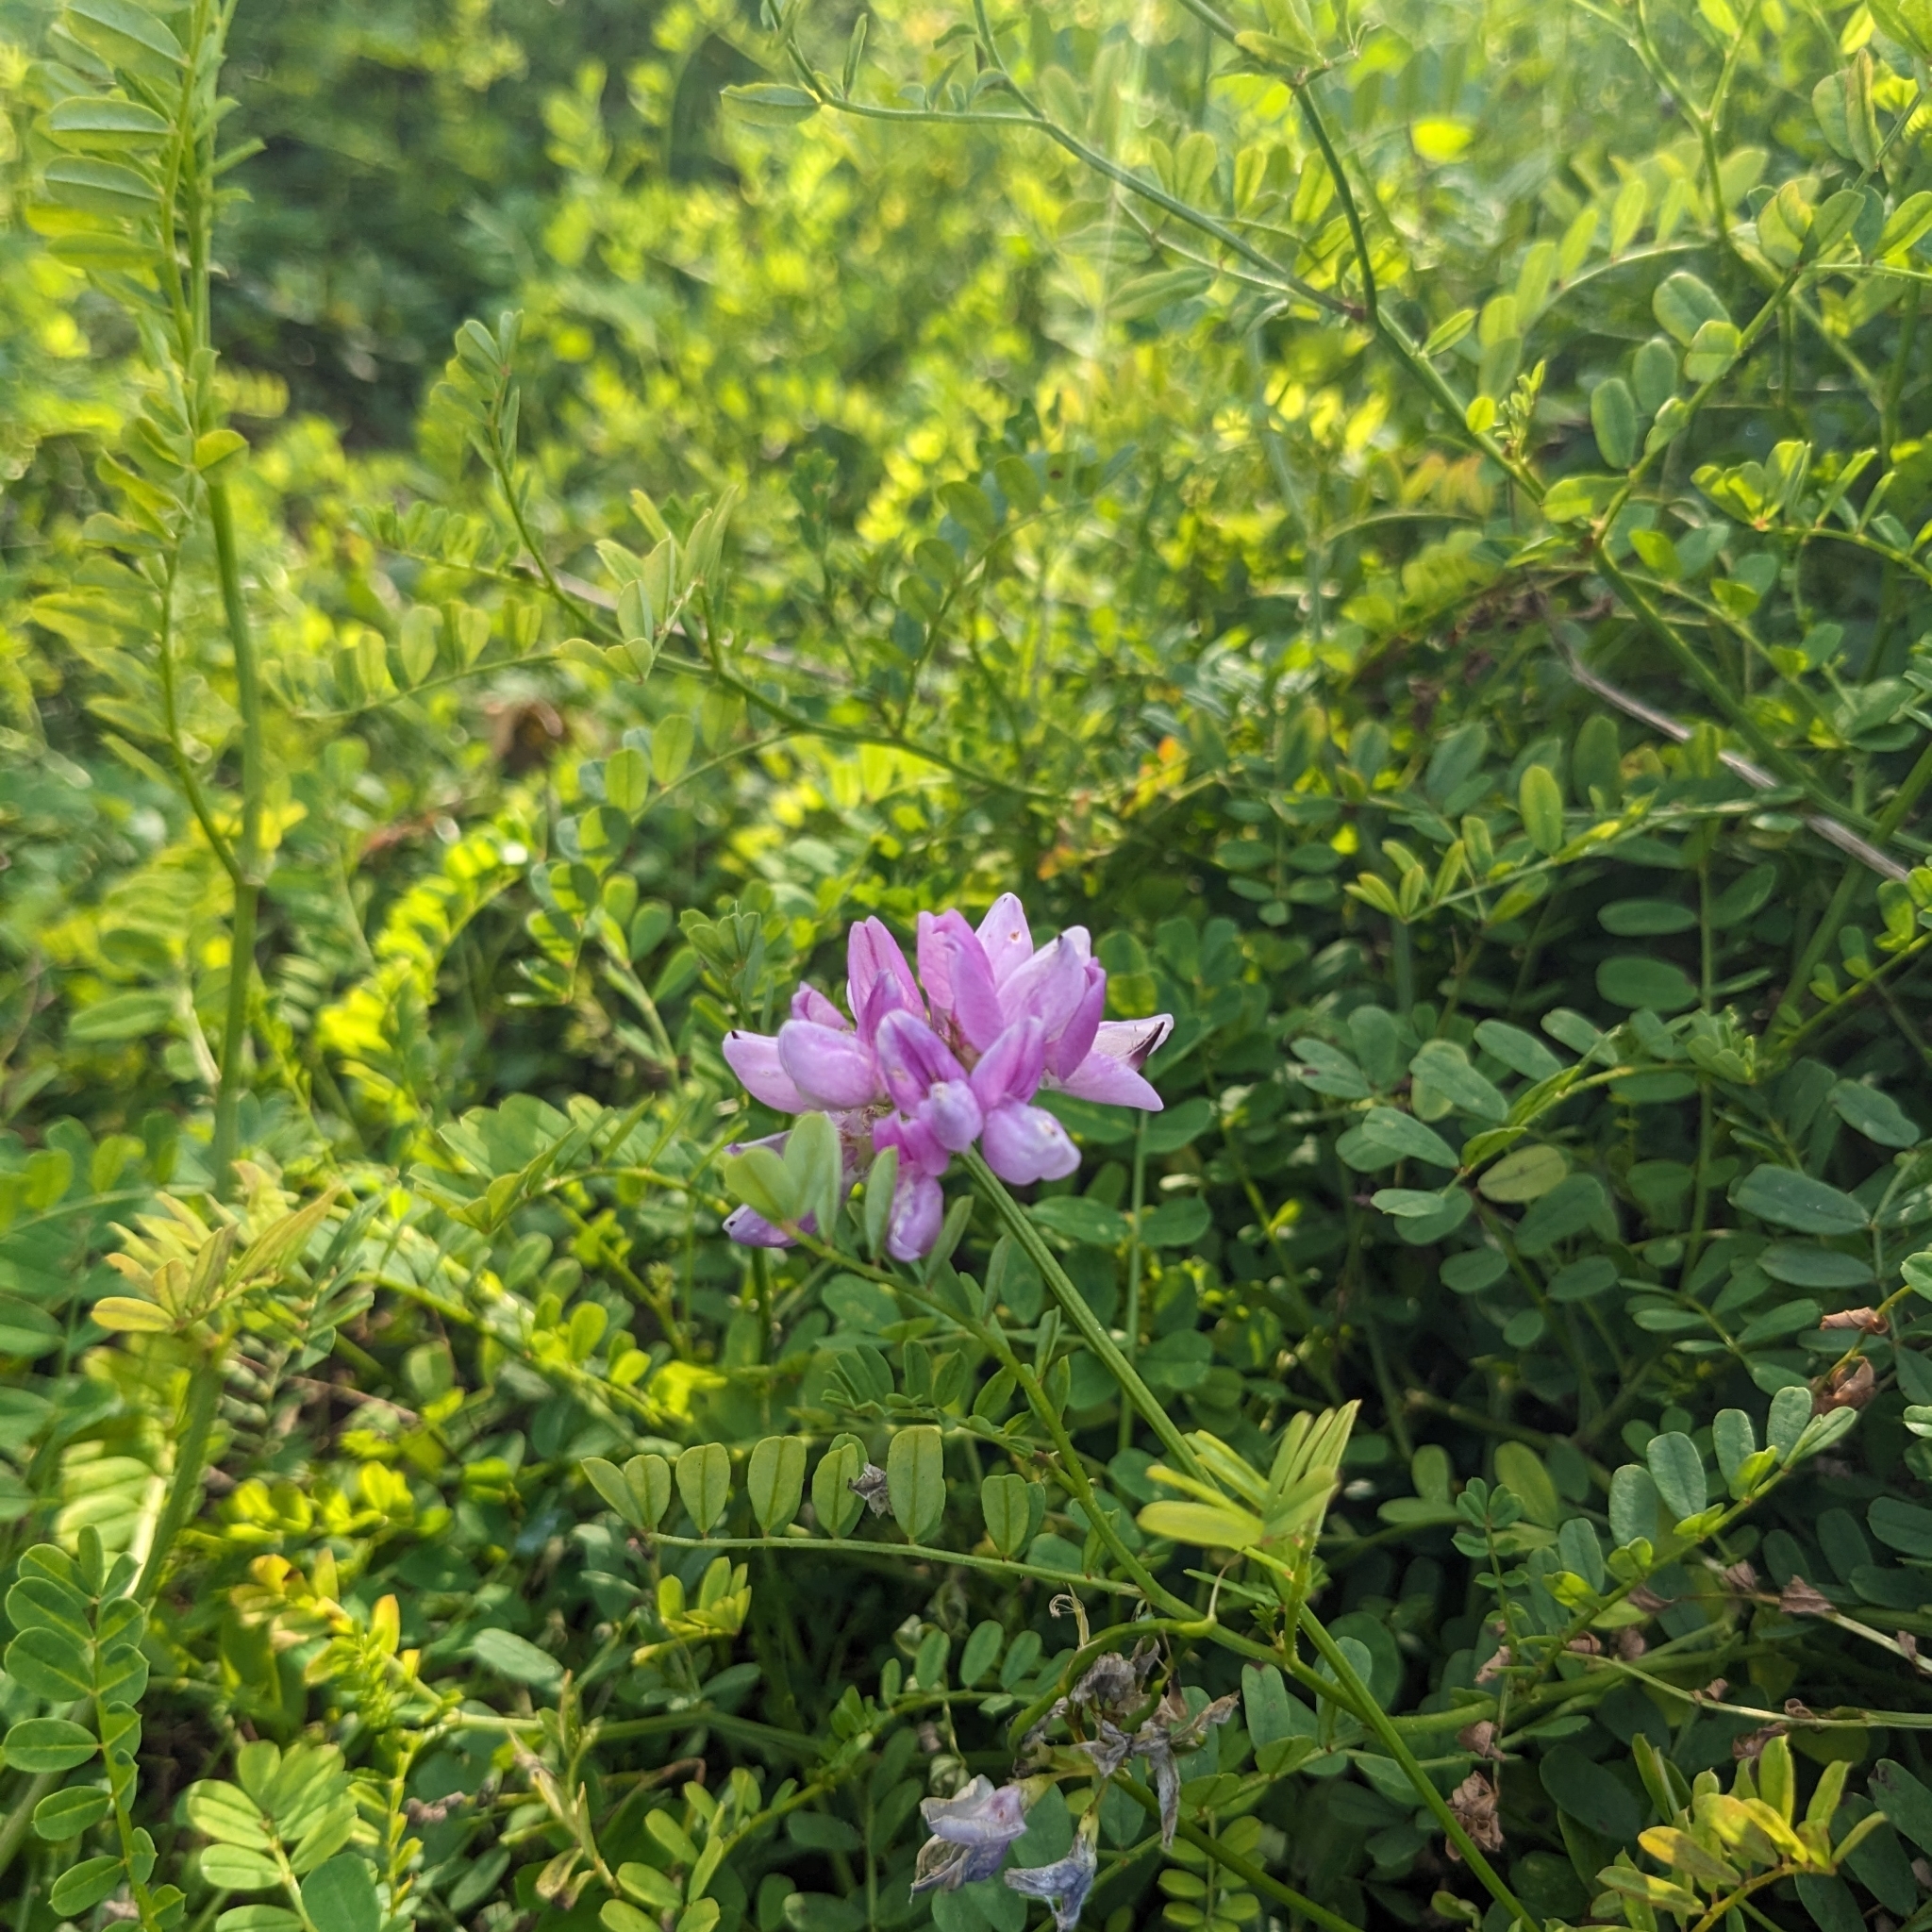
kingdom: Plantae
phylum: Tracheophyta
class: Magnoliopsida
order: Fabales
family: Fabaceae
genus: Coronilla
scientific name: Coronilla varia
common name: Crownvetch
